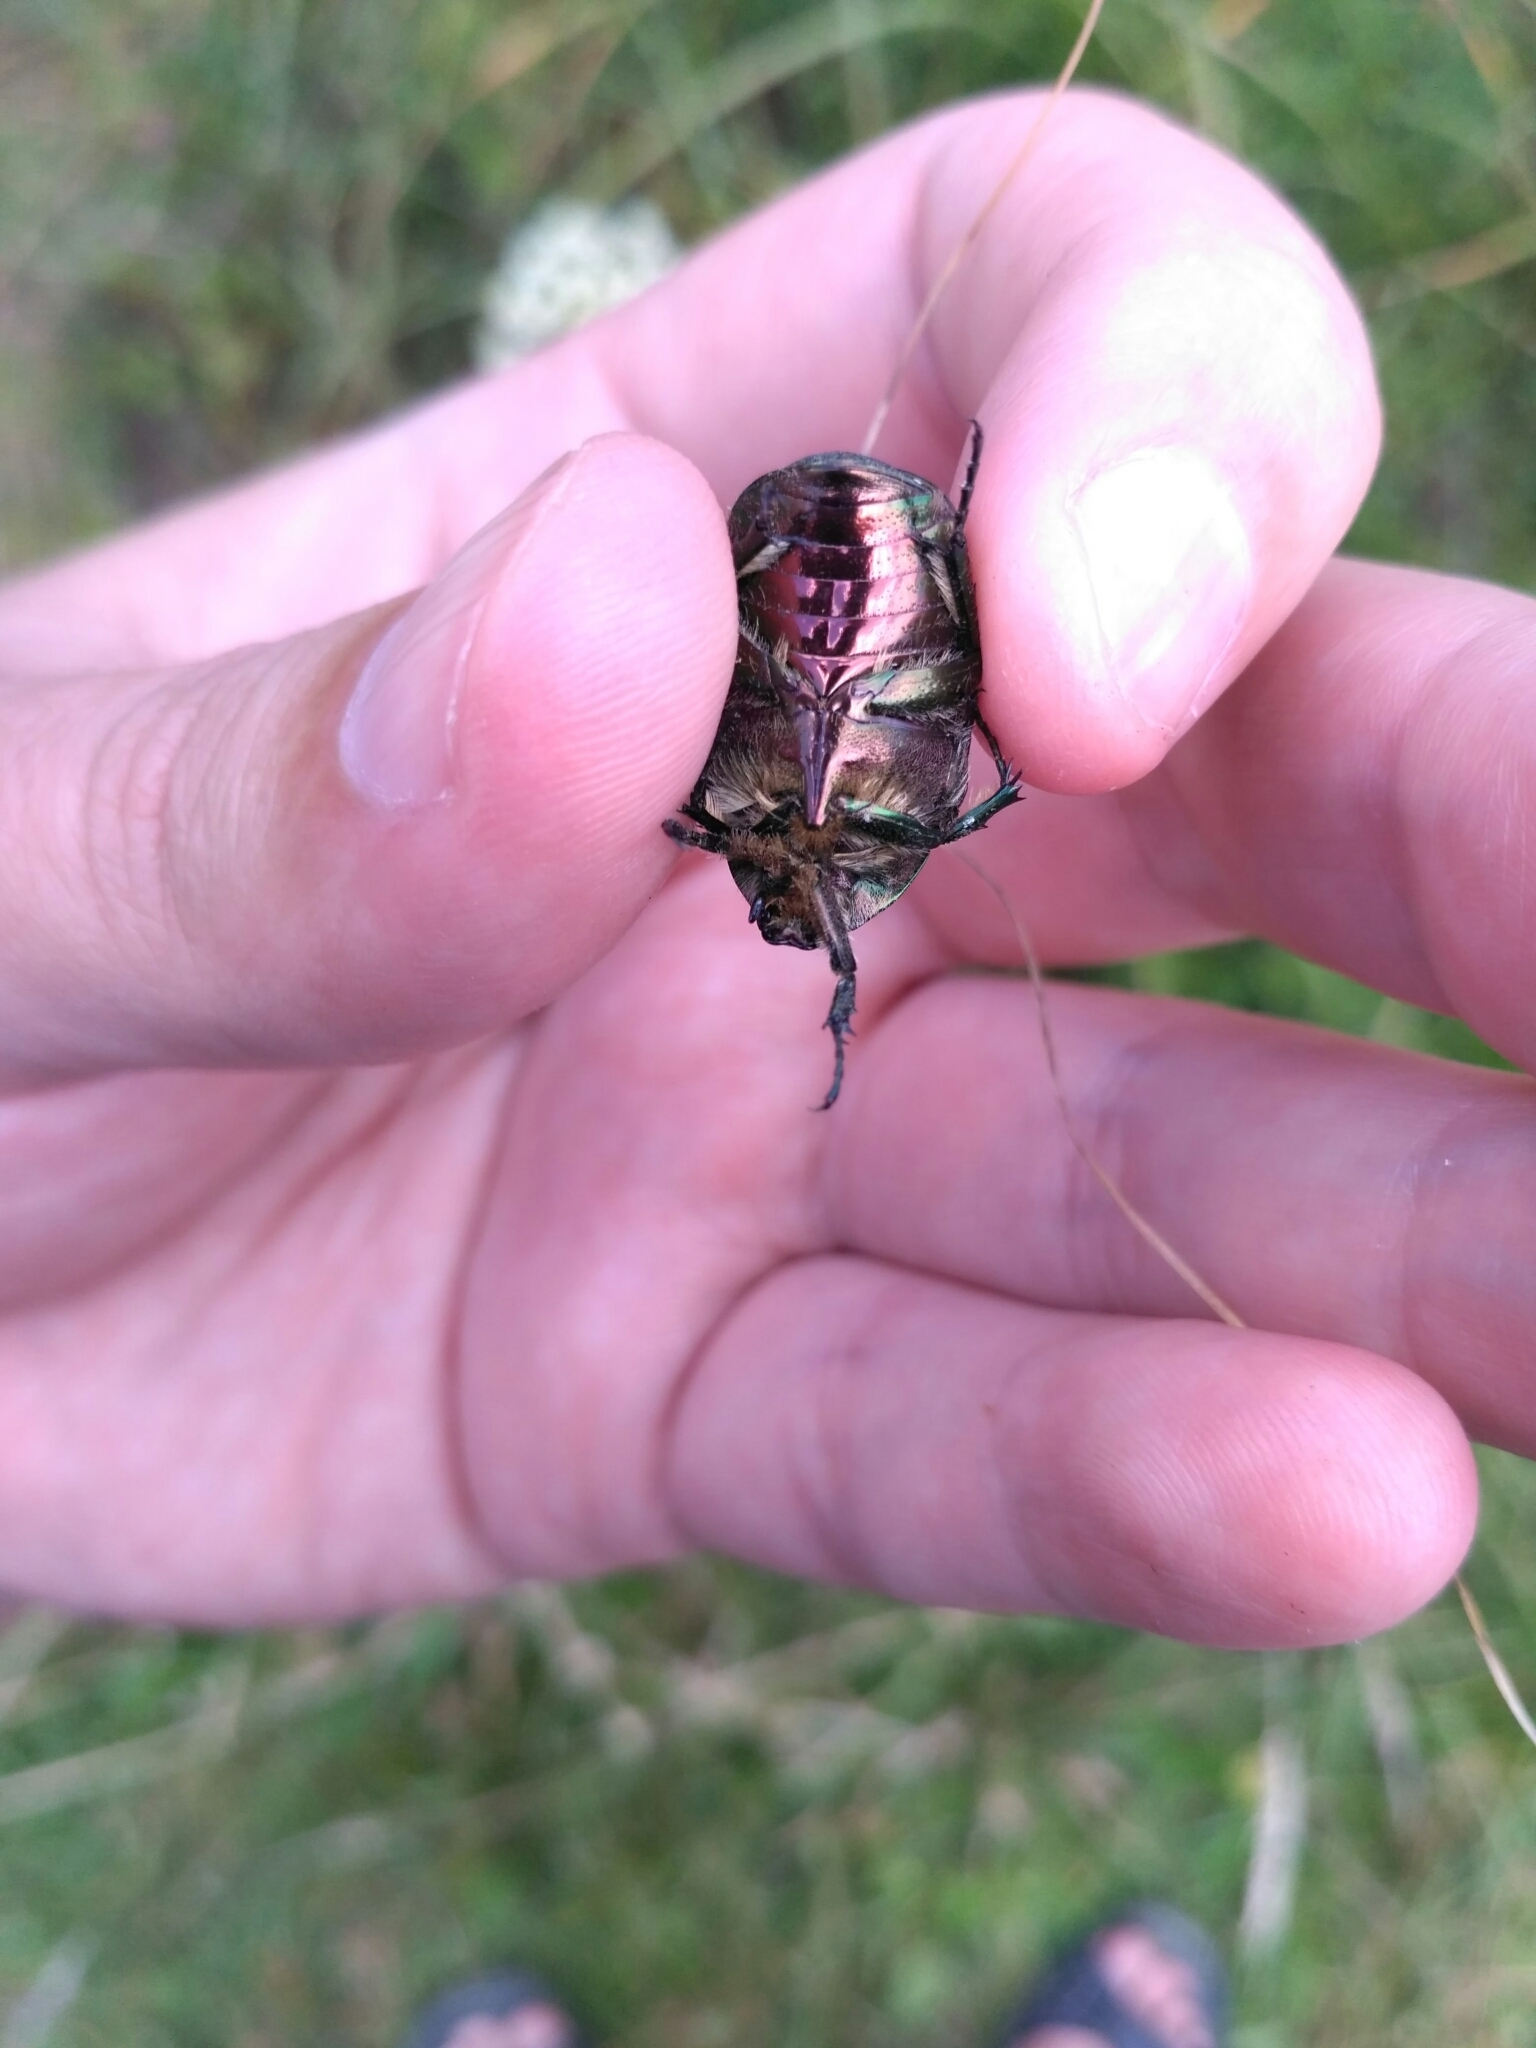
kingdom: Animalia
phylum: Arthropoda
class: Insecta
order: Coleoptera
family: Scarabaeidae
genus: Cetonia
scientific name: Cetonia aurata
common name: Rose chafer
